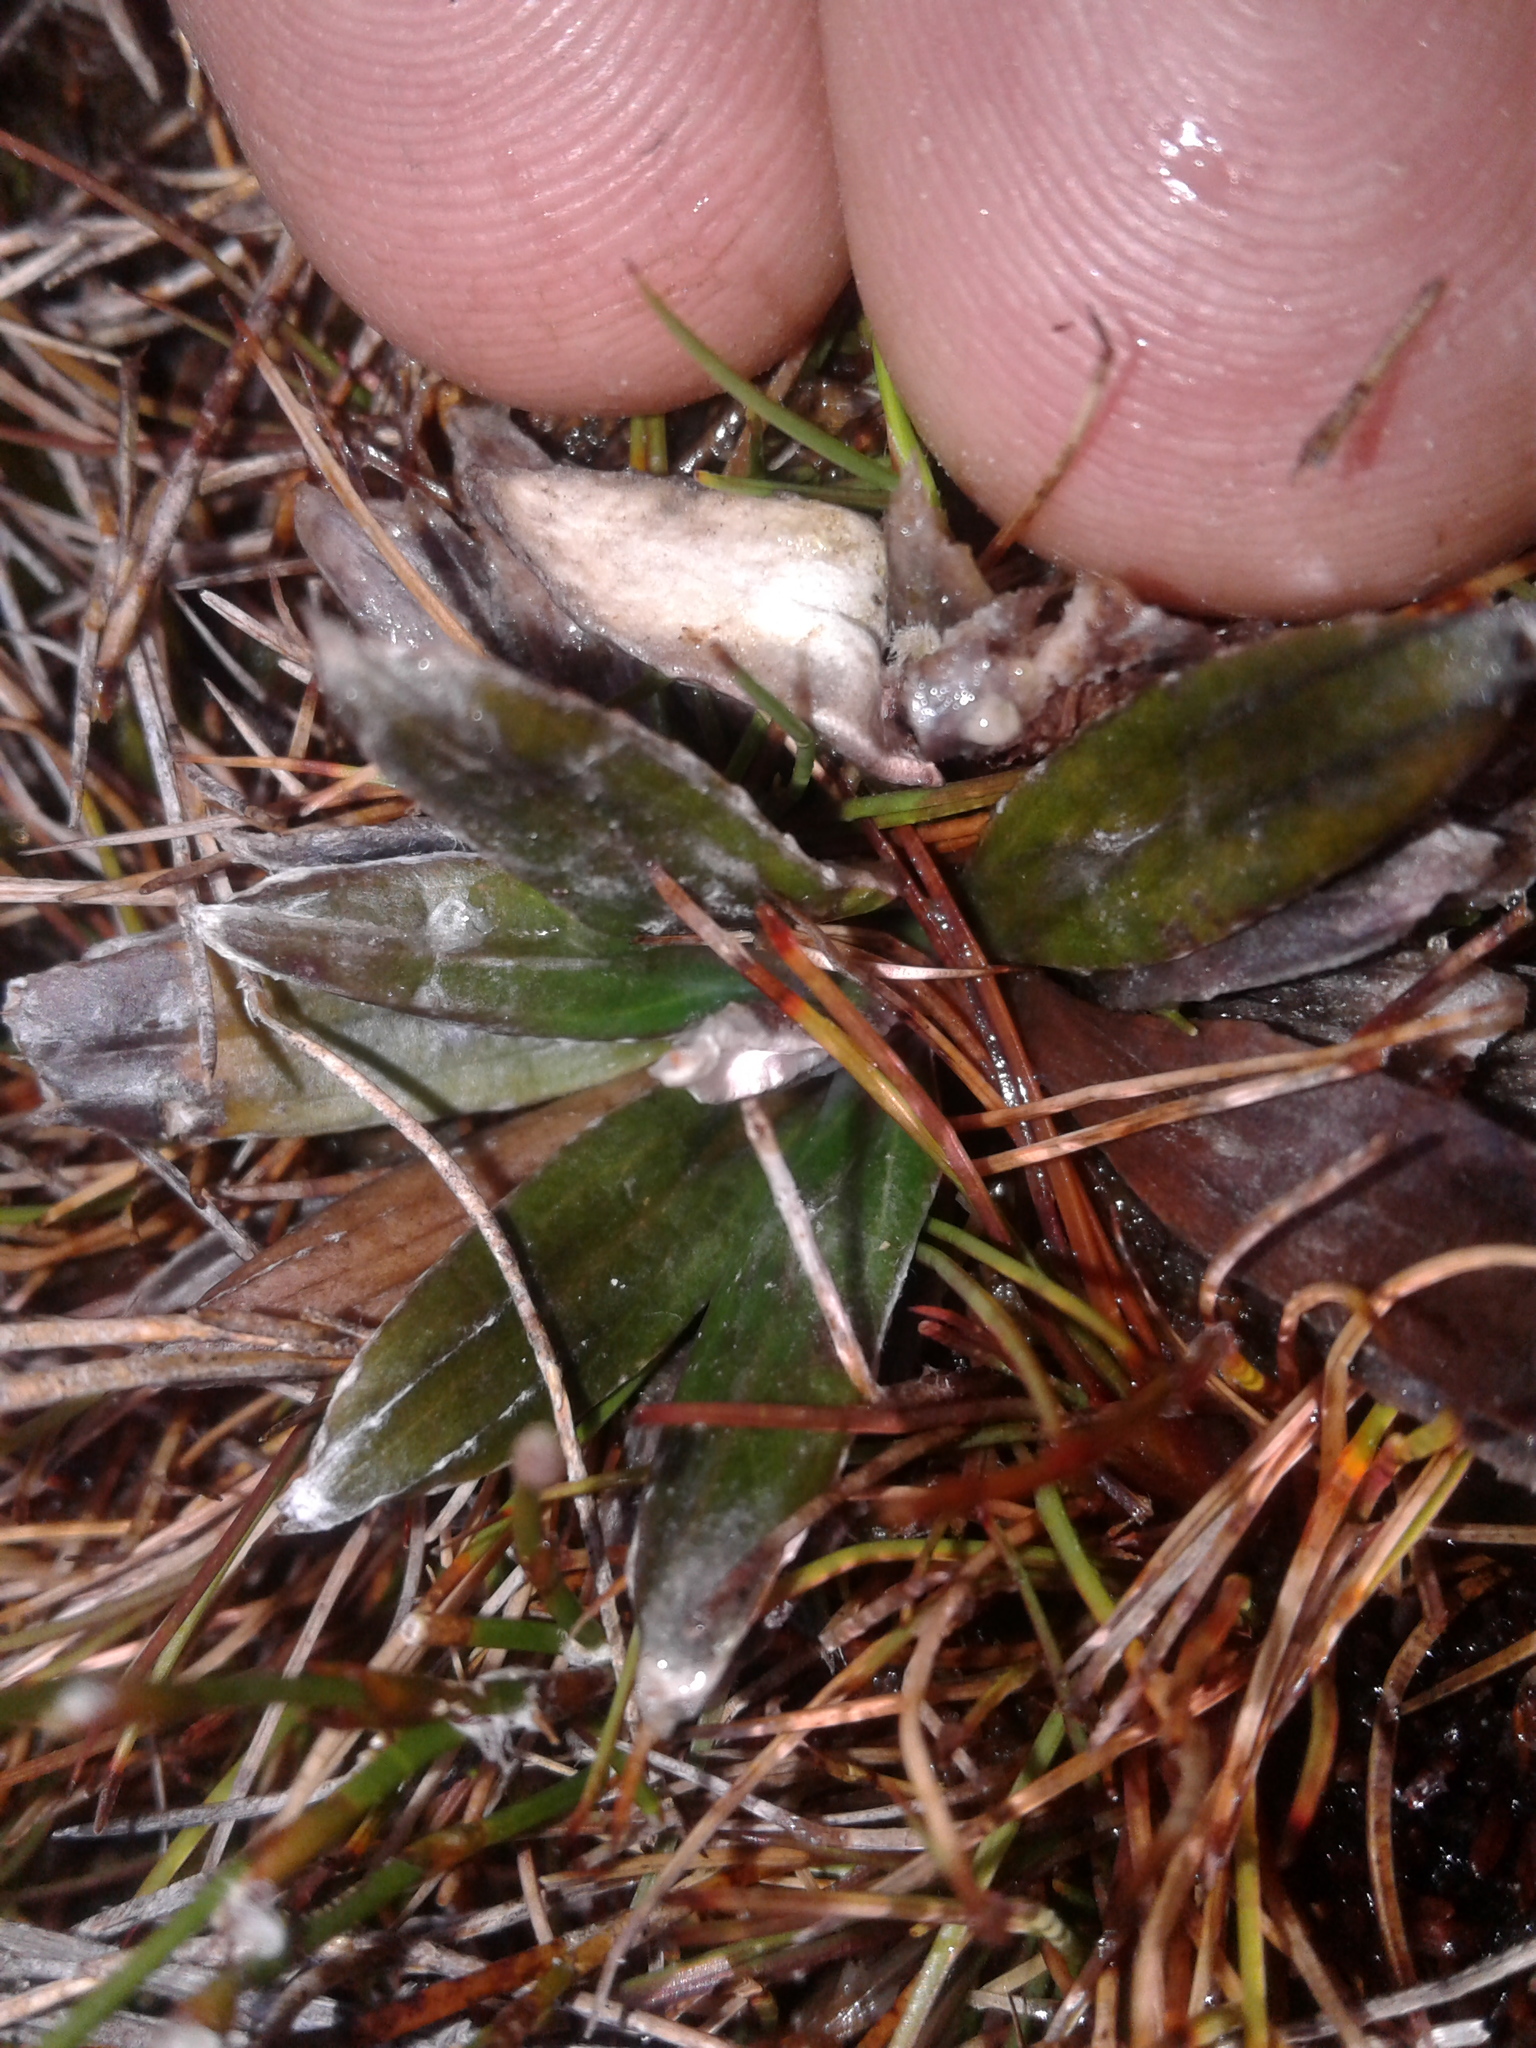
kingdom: Plantae
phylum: Tracheophyta
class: Magnoliopsida
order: Asterales
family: Asteraceae
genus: Celmisia
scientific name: Celmisia dubia
